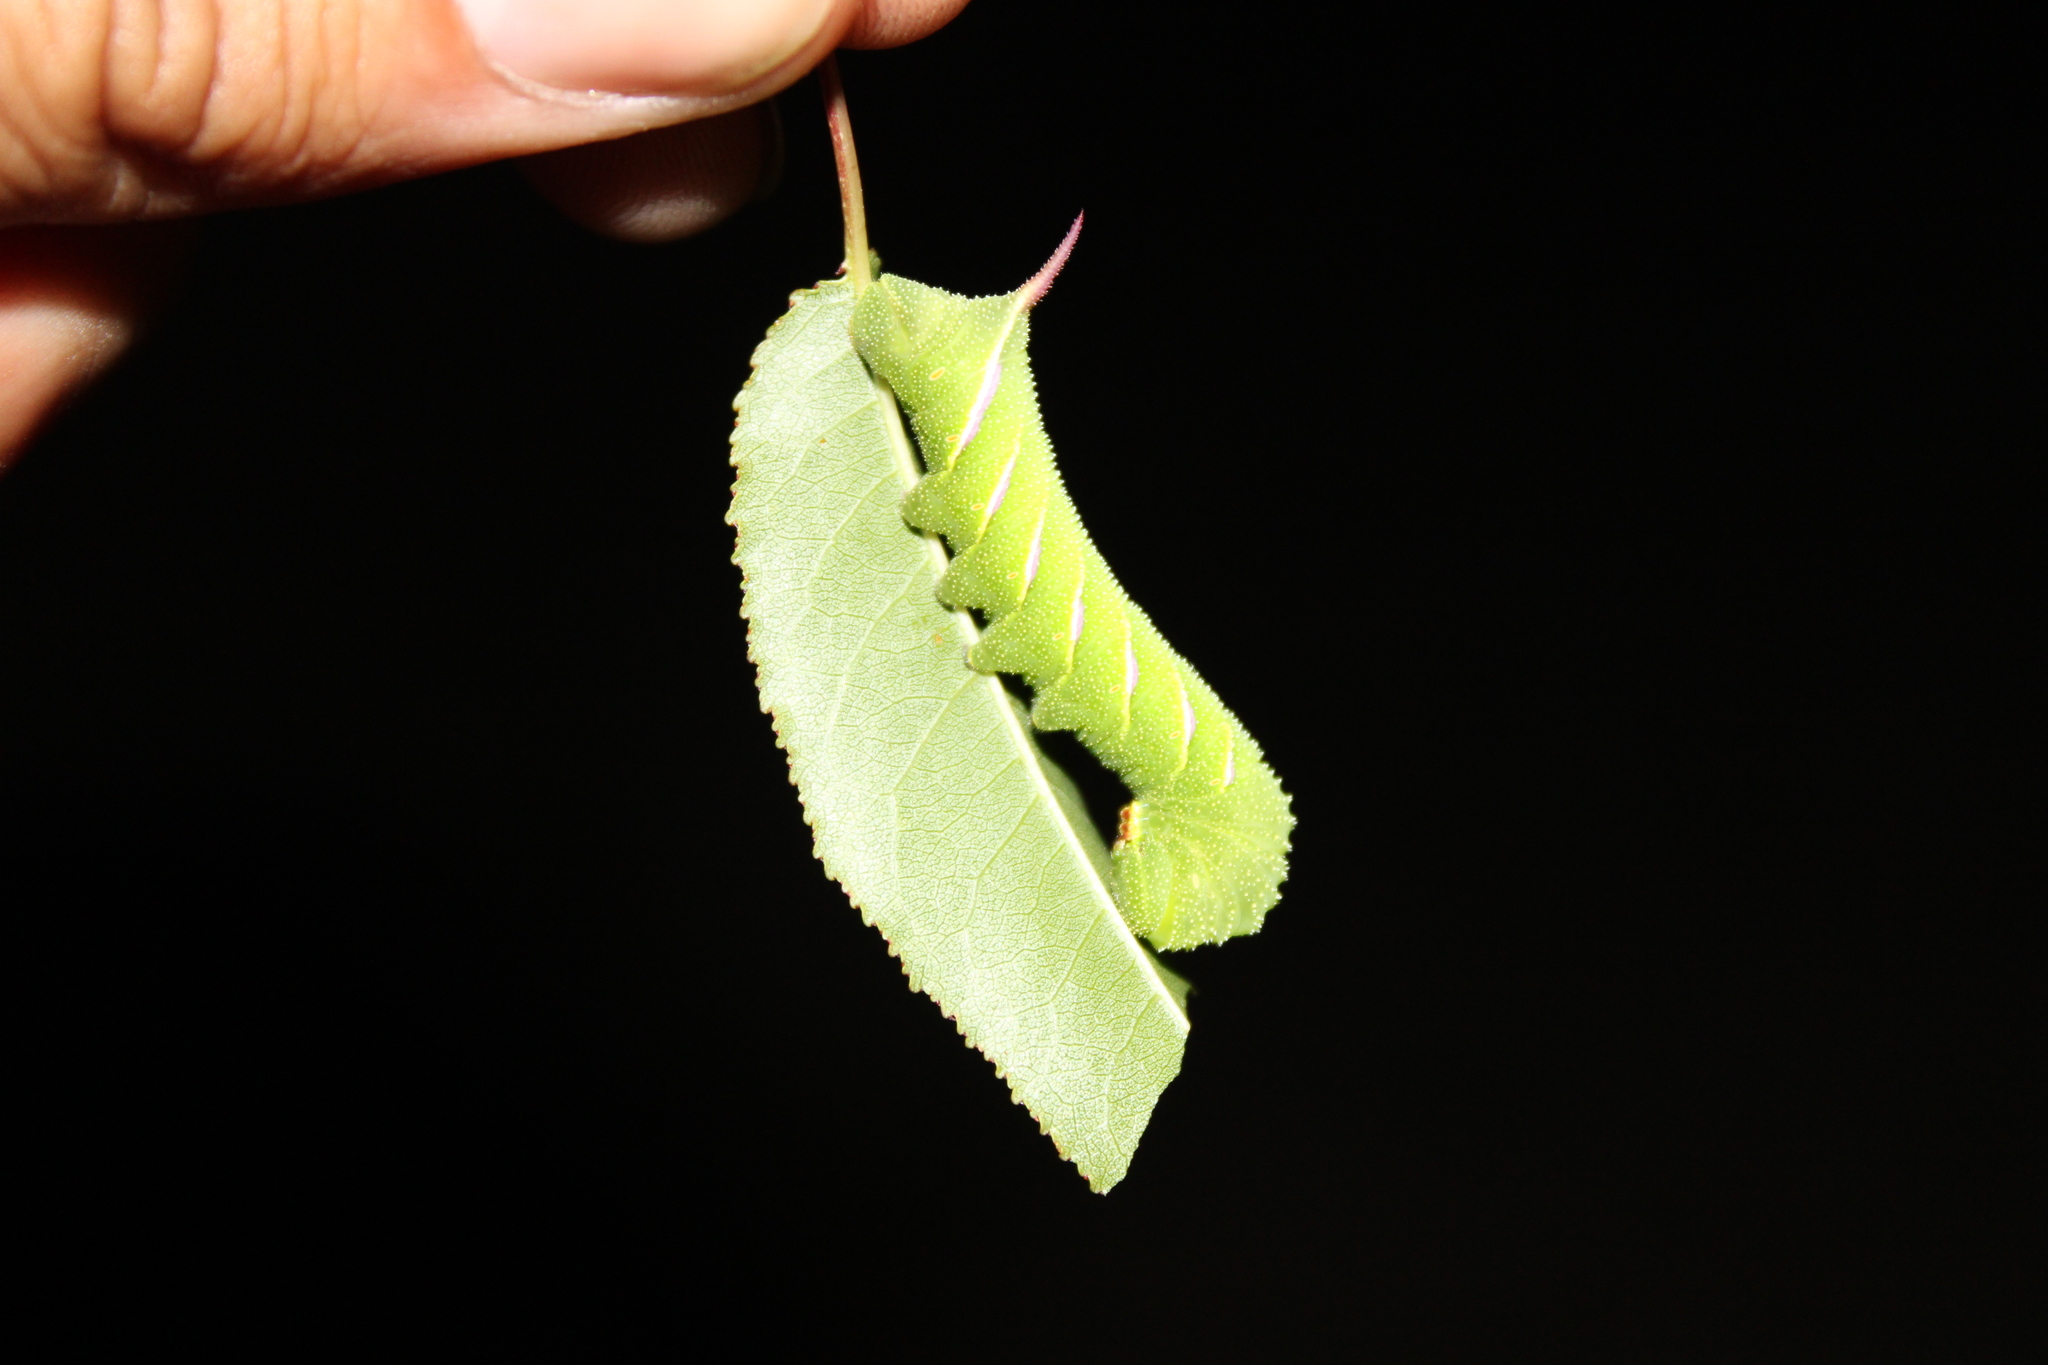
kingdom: Animalia
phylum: Arthropoda
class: Insecta
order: Lepidoptera
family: Sphingidae
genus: Sphinx
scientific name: Sphinx drupiferarum
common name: Wild cherry sphinx
